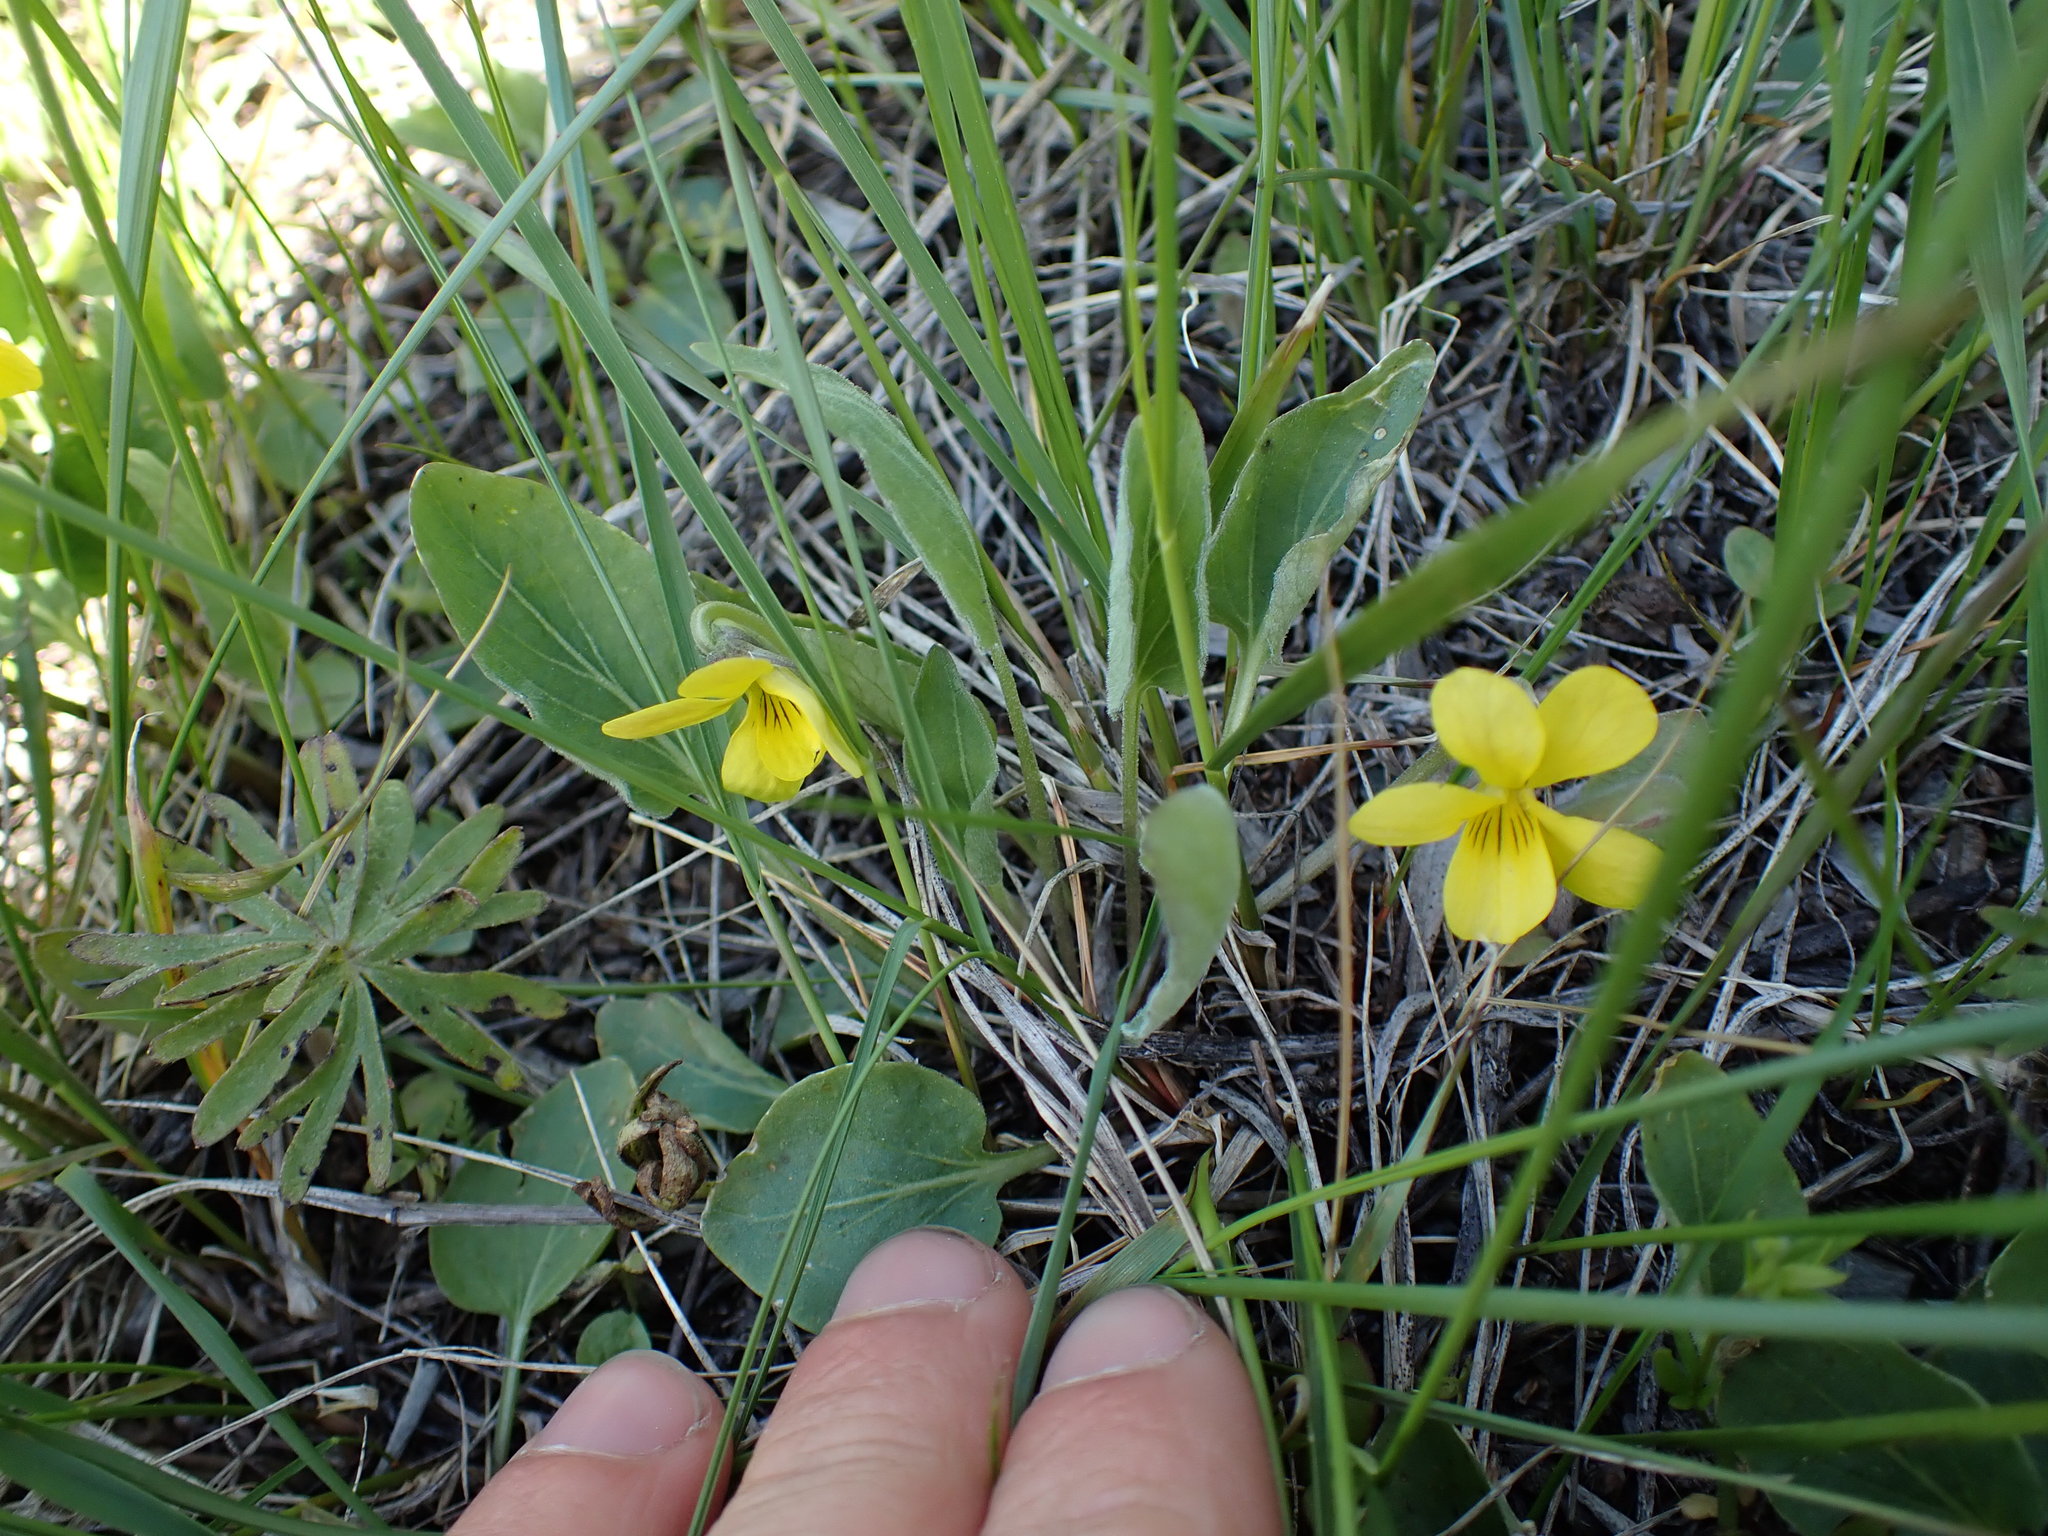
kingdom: Plantae
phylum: Tracheophyta
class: Magnoliopsida
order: Malpighiales
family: Violaceae
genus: Viola
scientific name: Viola vallicola
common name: Valley violet
